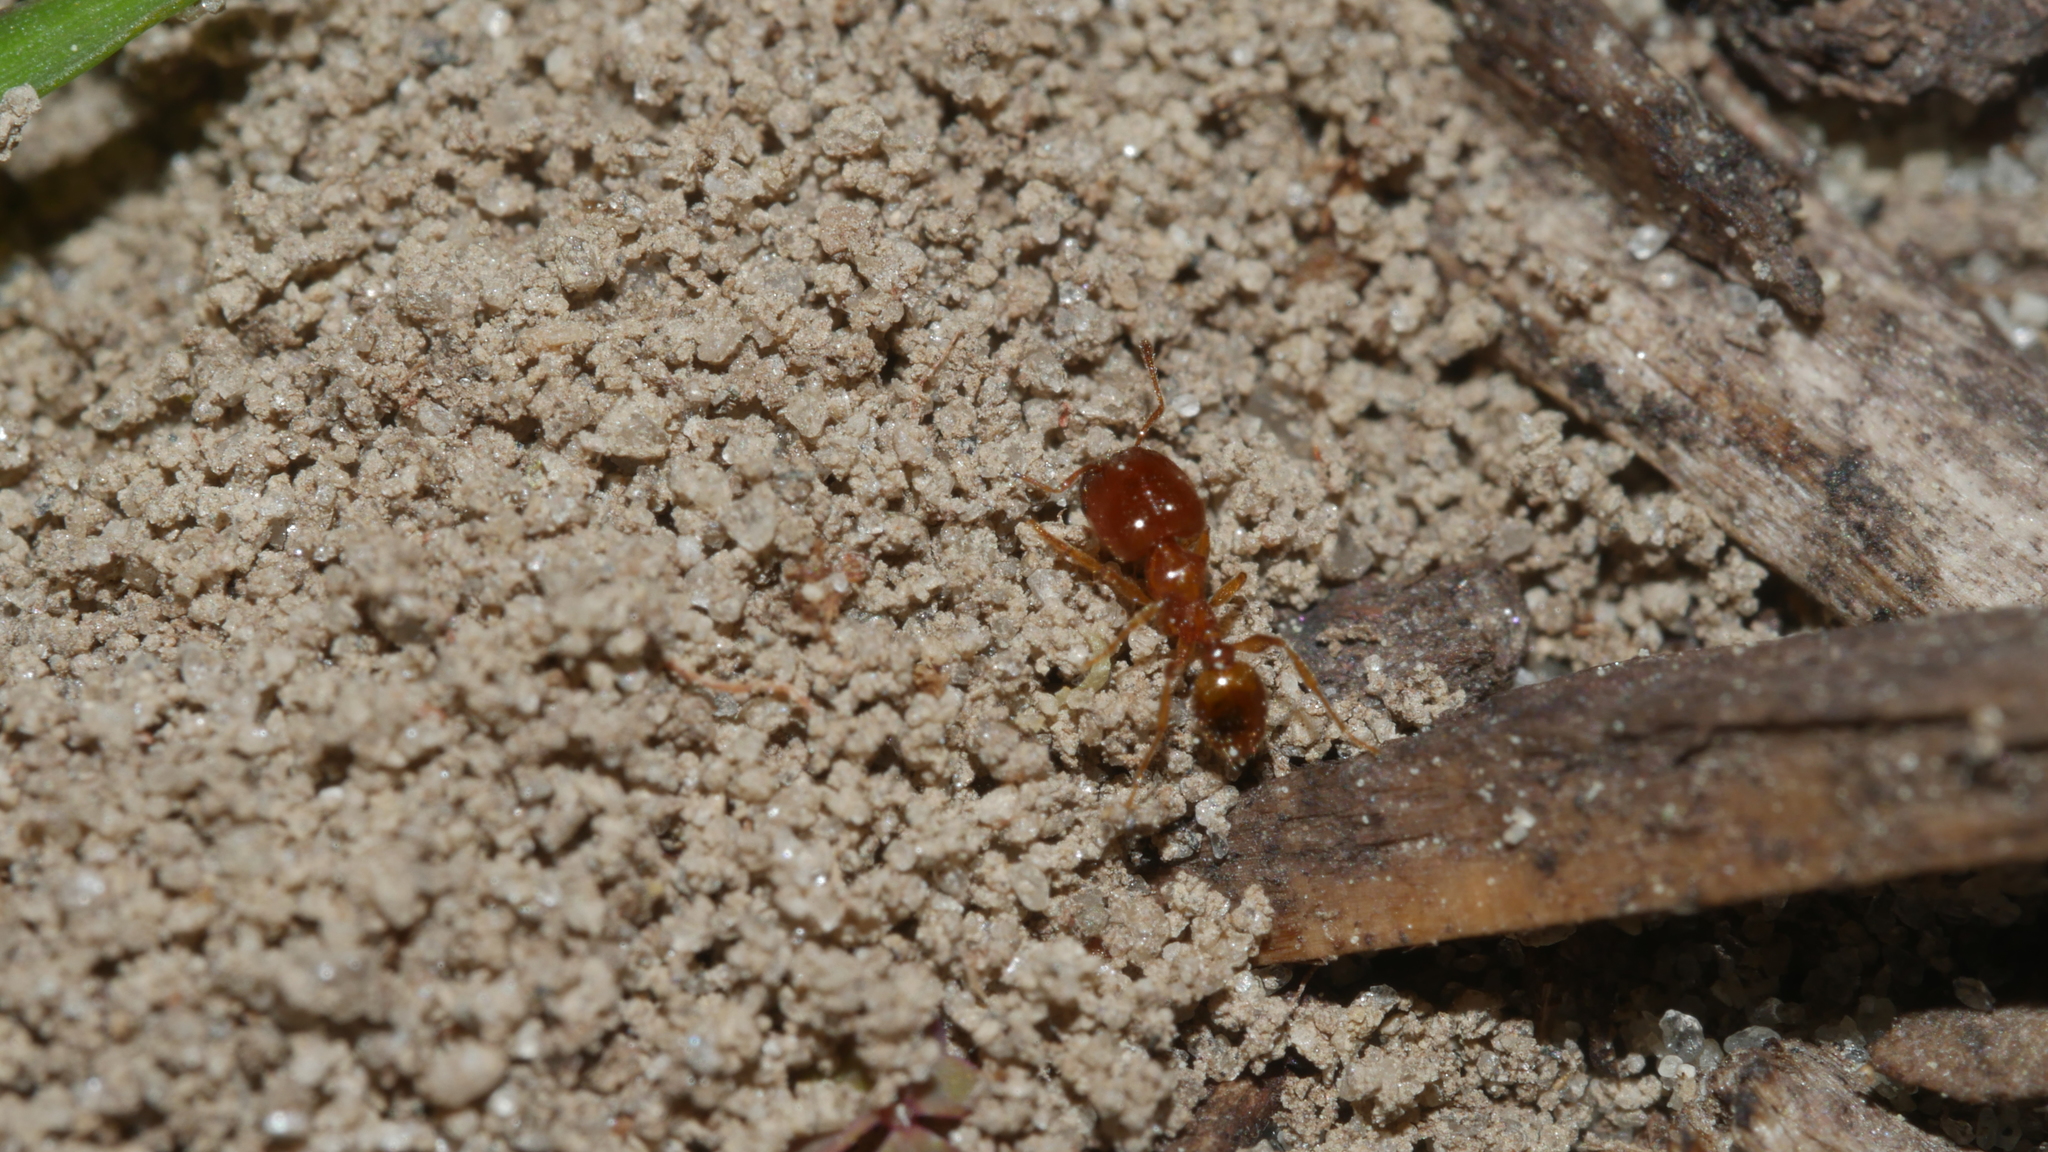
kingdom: Animalia
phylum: Arthropoda
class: Insecta
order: Hymenoptera
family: Formicidae
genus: Pheidole
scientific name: Pheidole bicarinata
